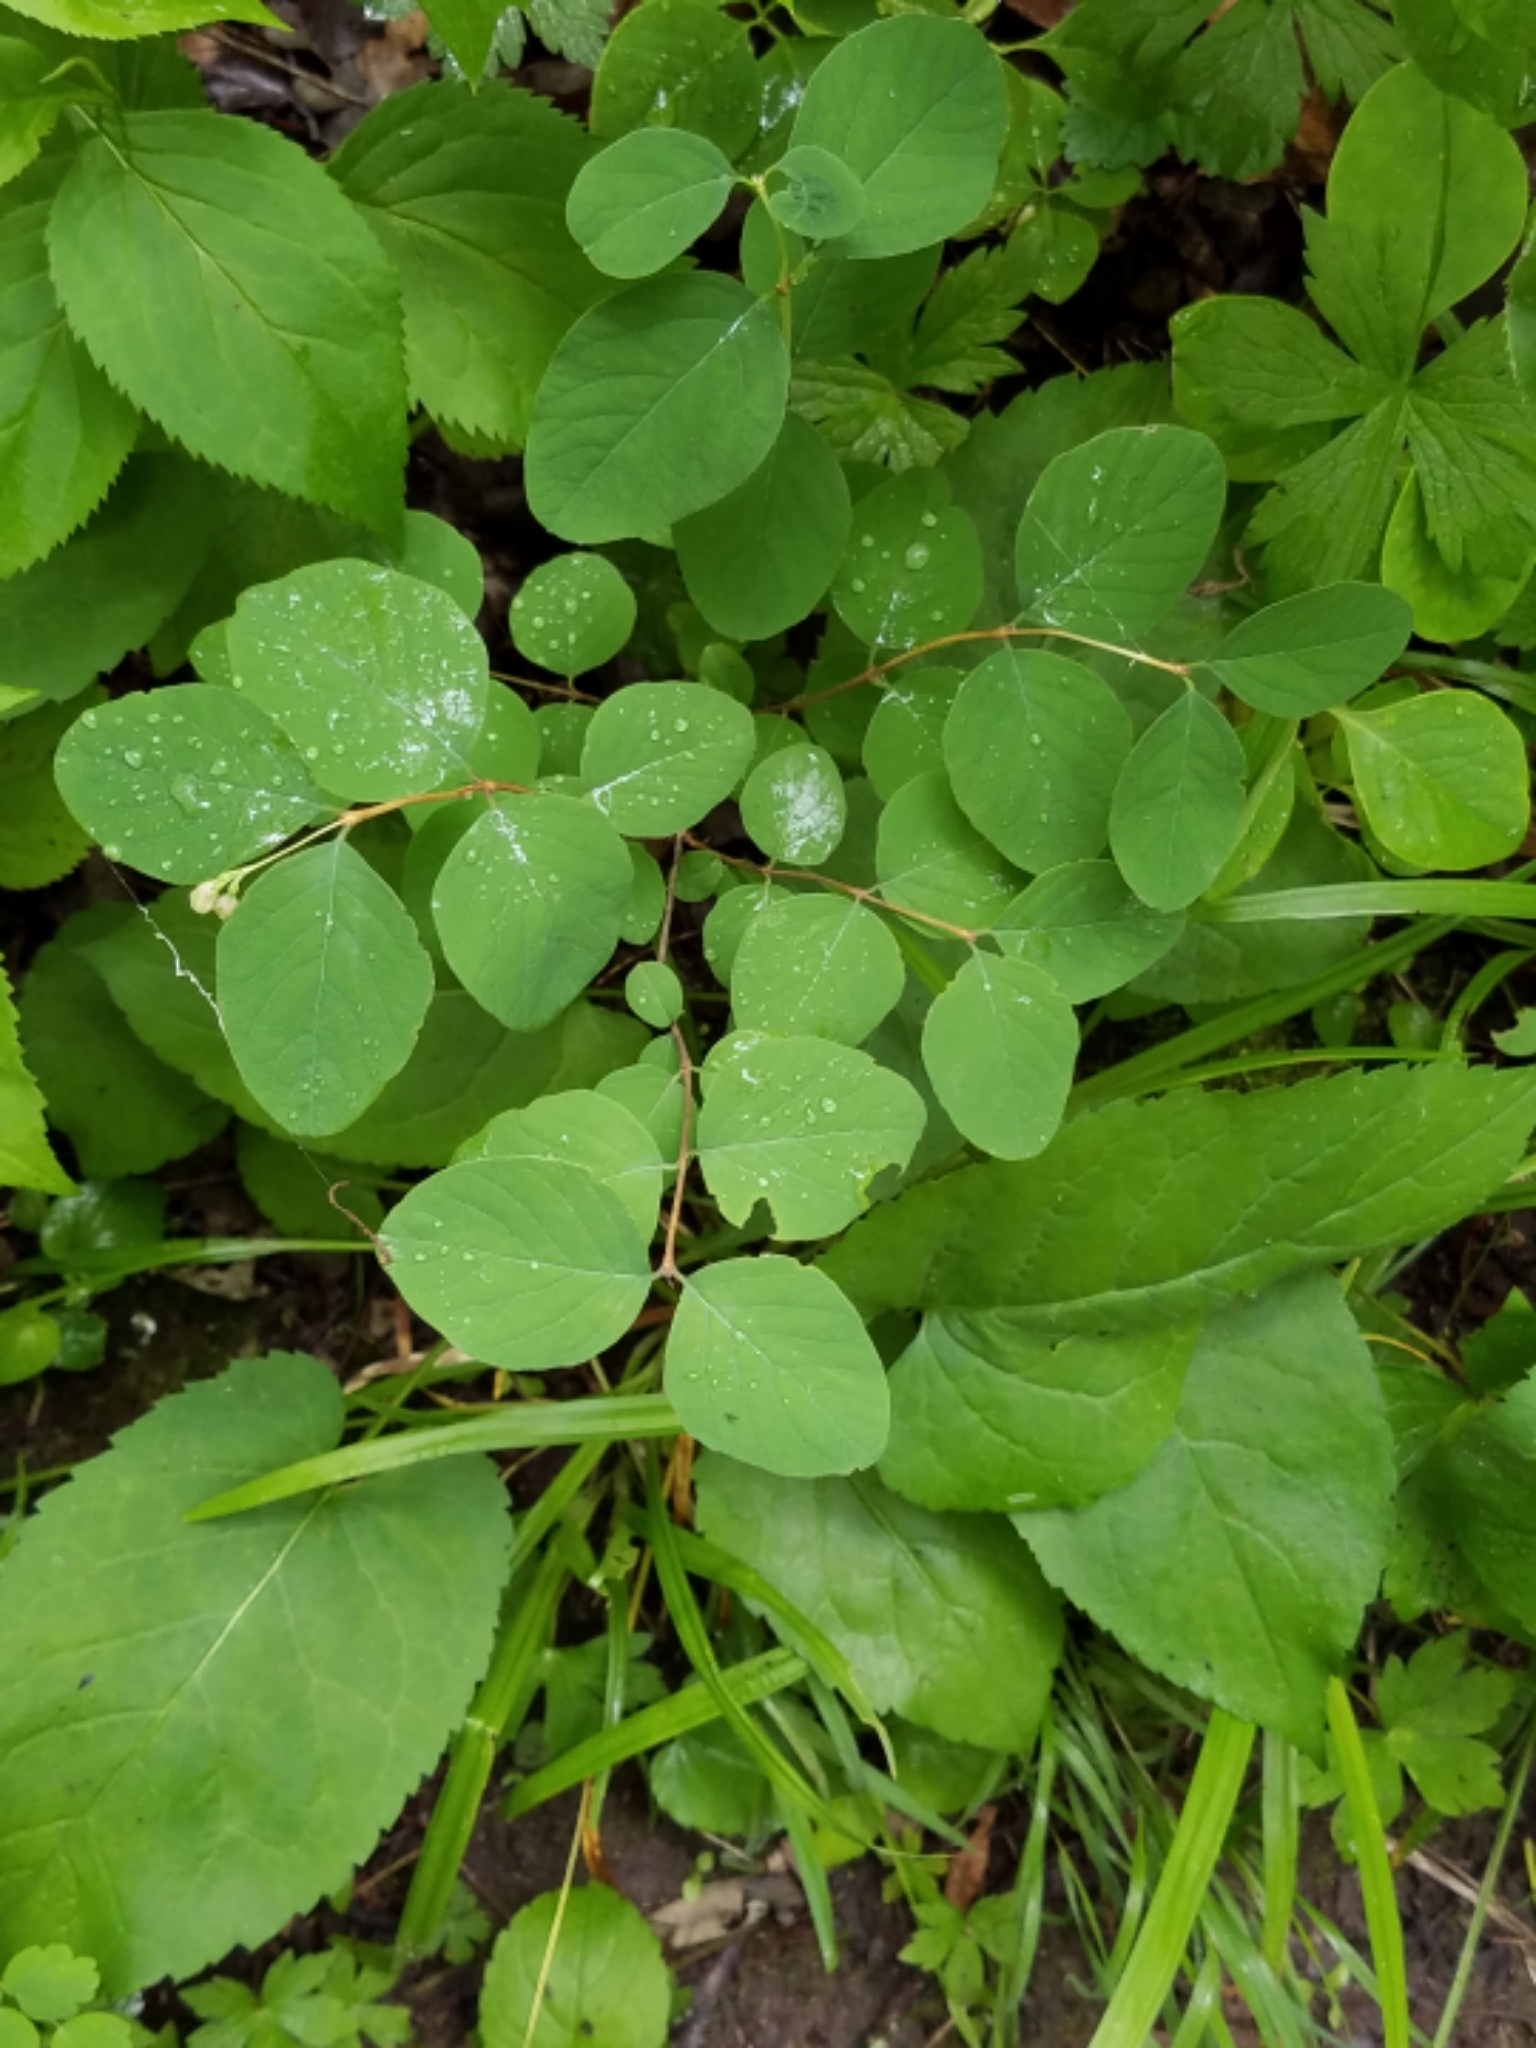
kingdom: Plantae
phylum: Tracheophyta
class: Magnoliopsida
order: Dipsacales
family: Caprifoliaceae
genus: Symphoricarpos
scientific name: Symphoricarpos albus
